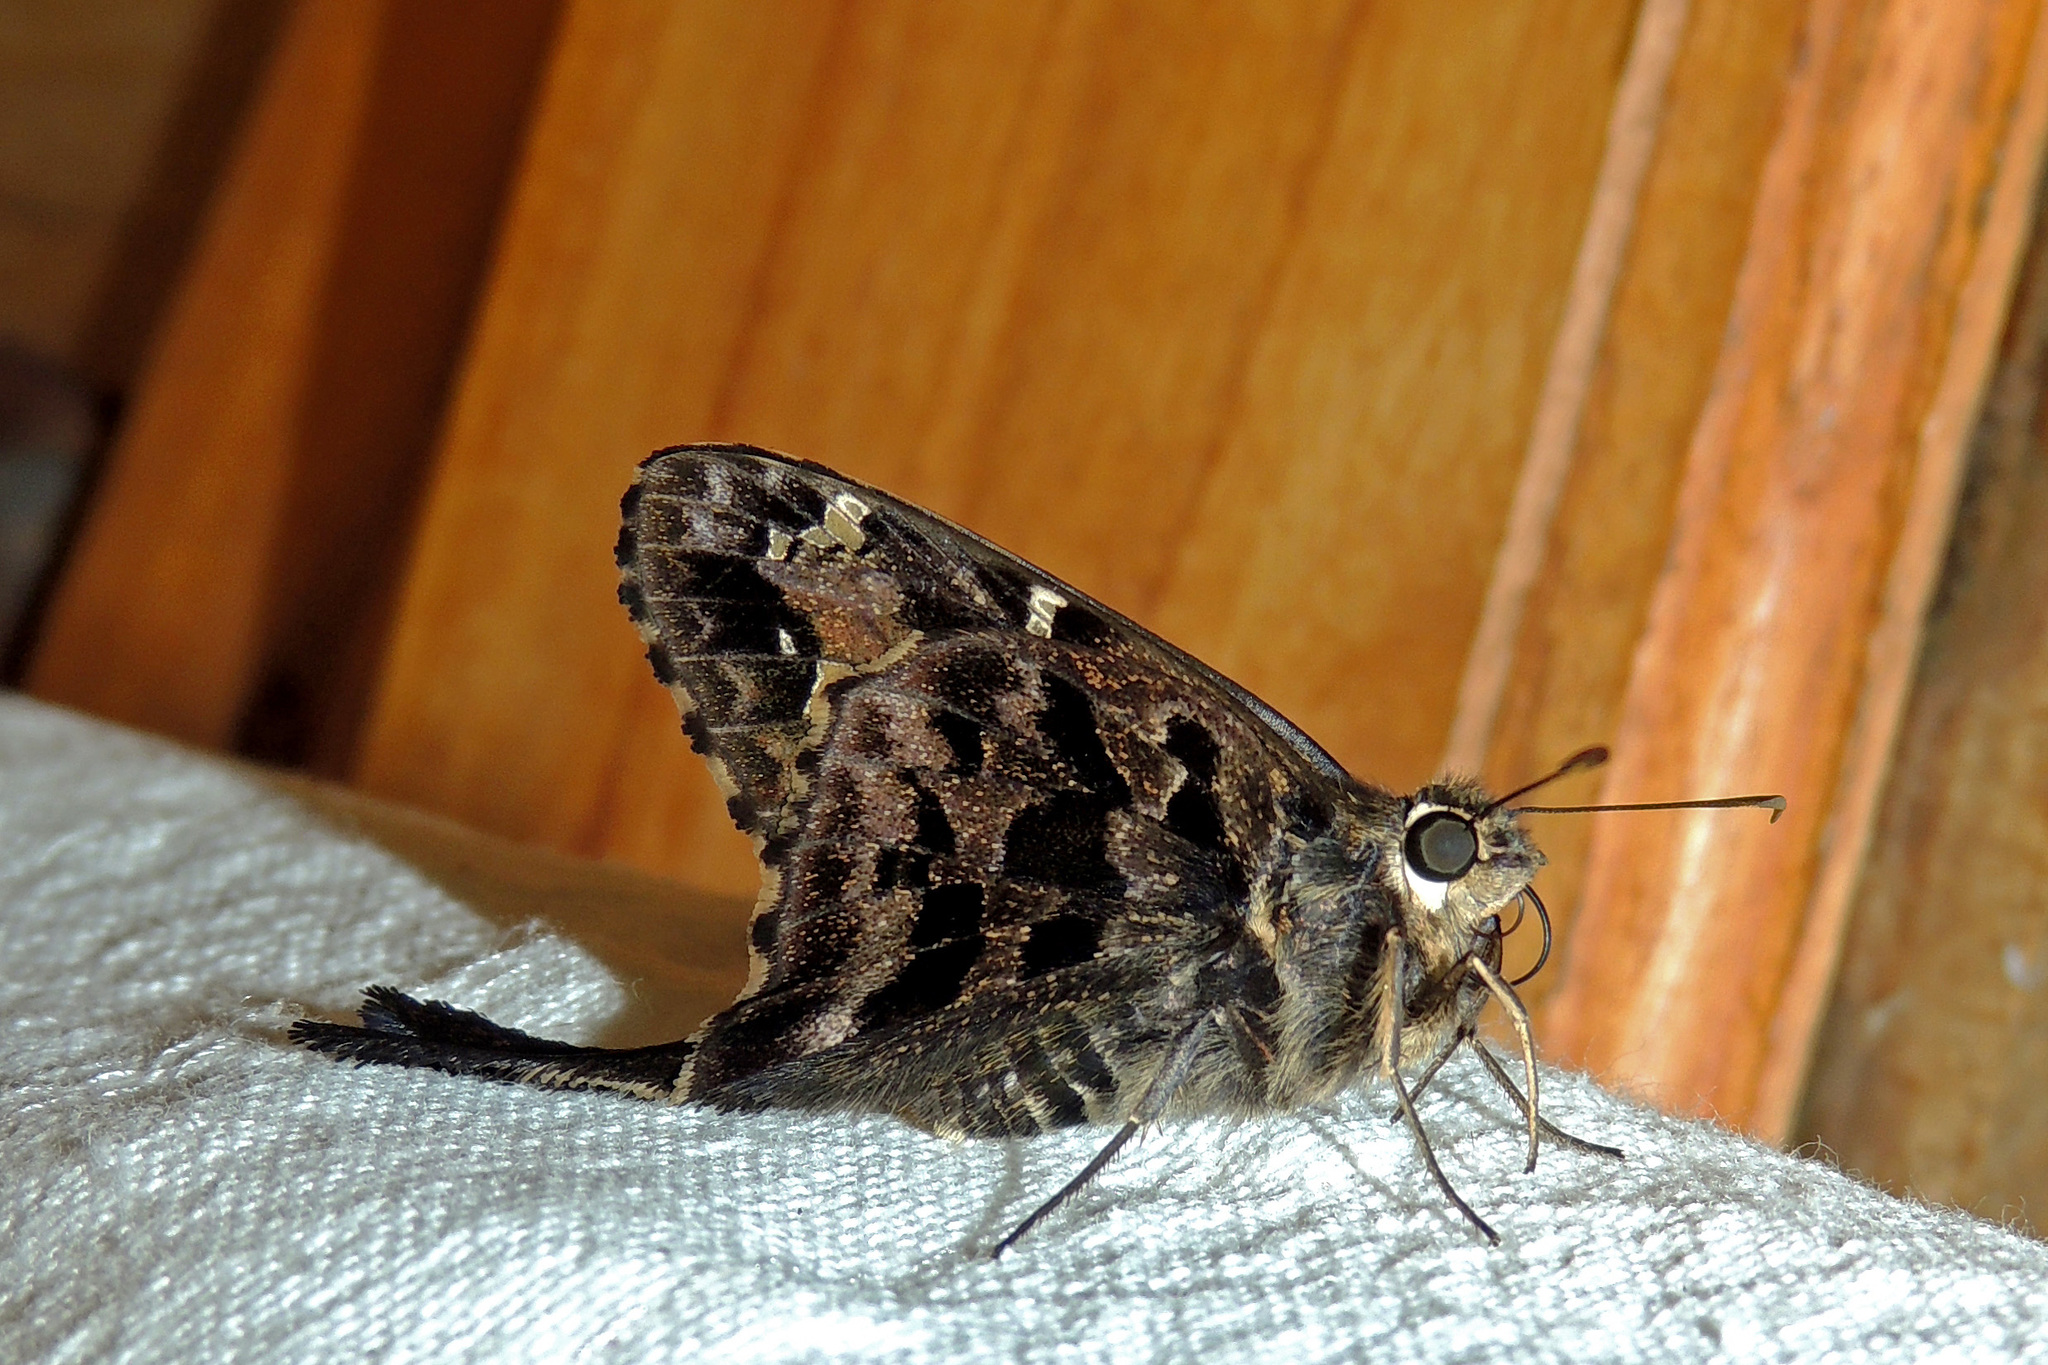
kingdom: Animalia
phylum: Arthropoda
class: Insecta
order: Lepidoptera
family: Hesperiidae
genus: Codatractus
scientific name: Codatractus aminias
